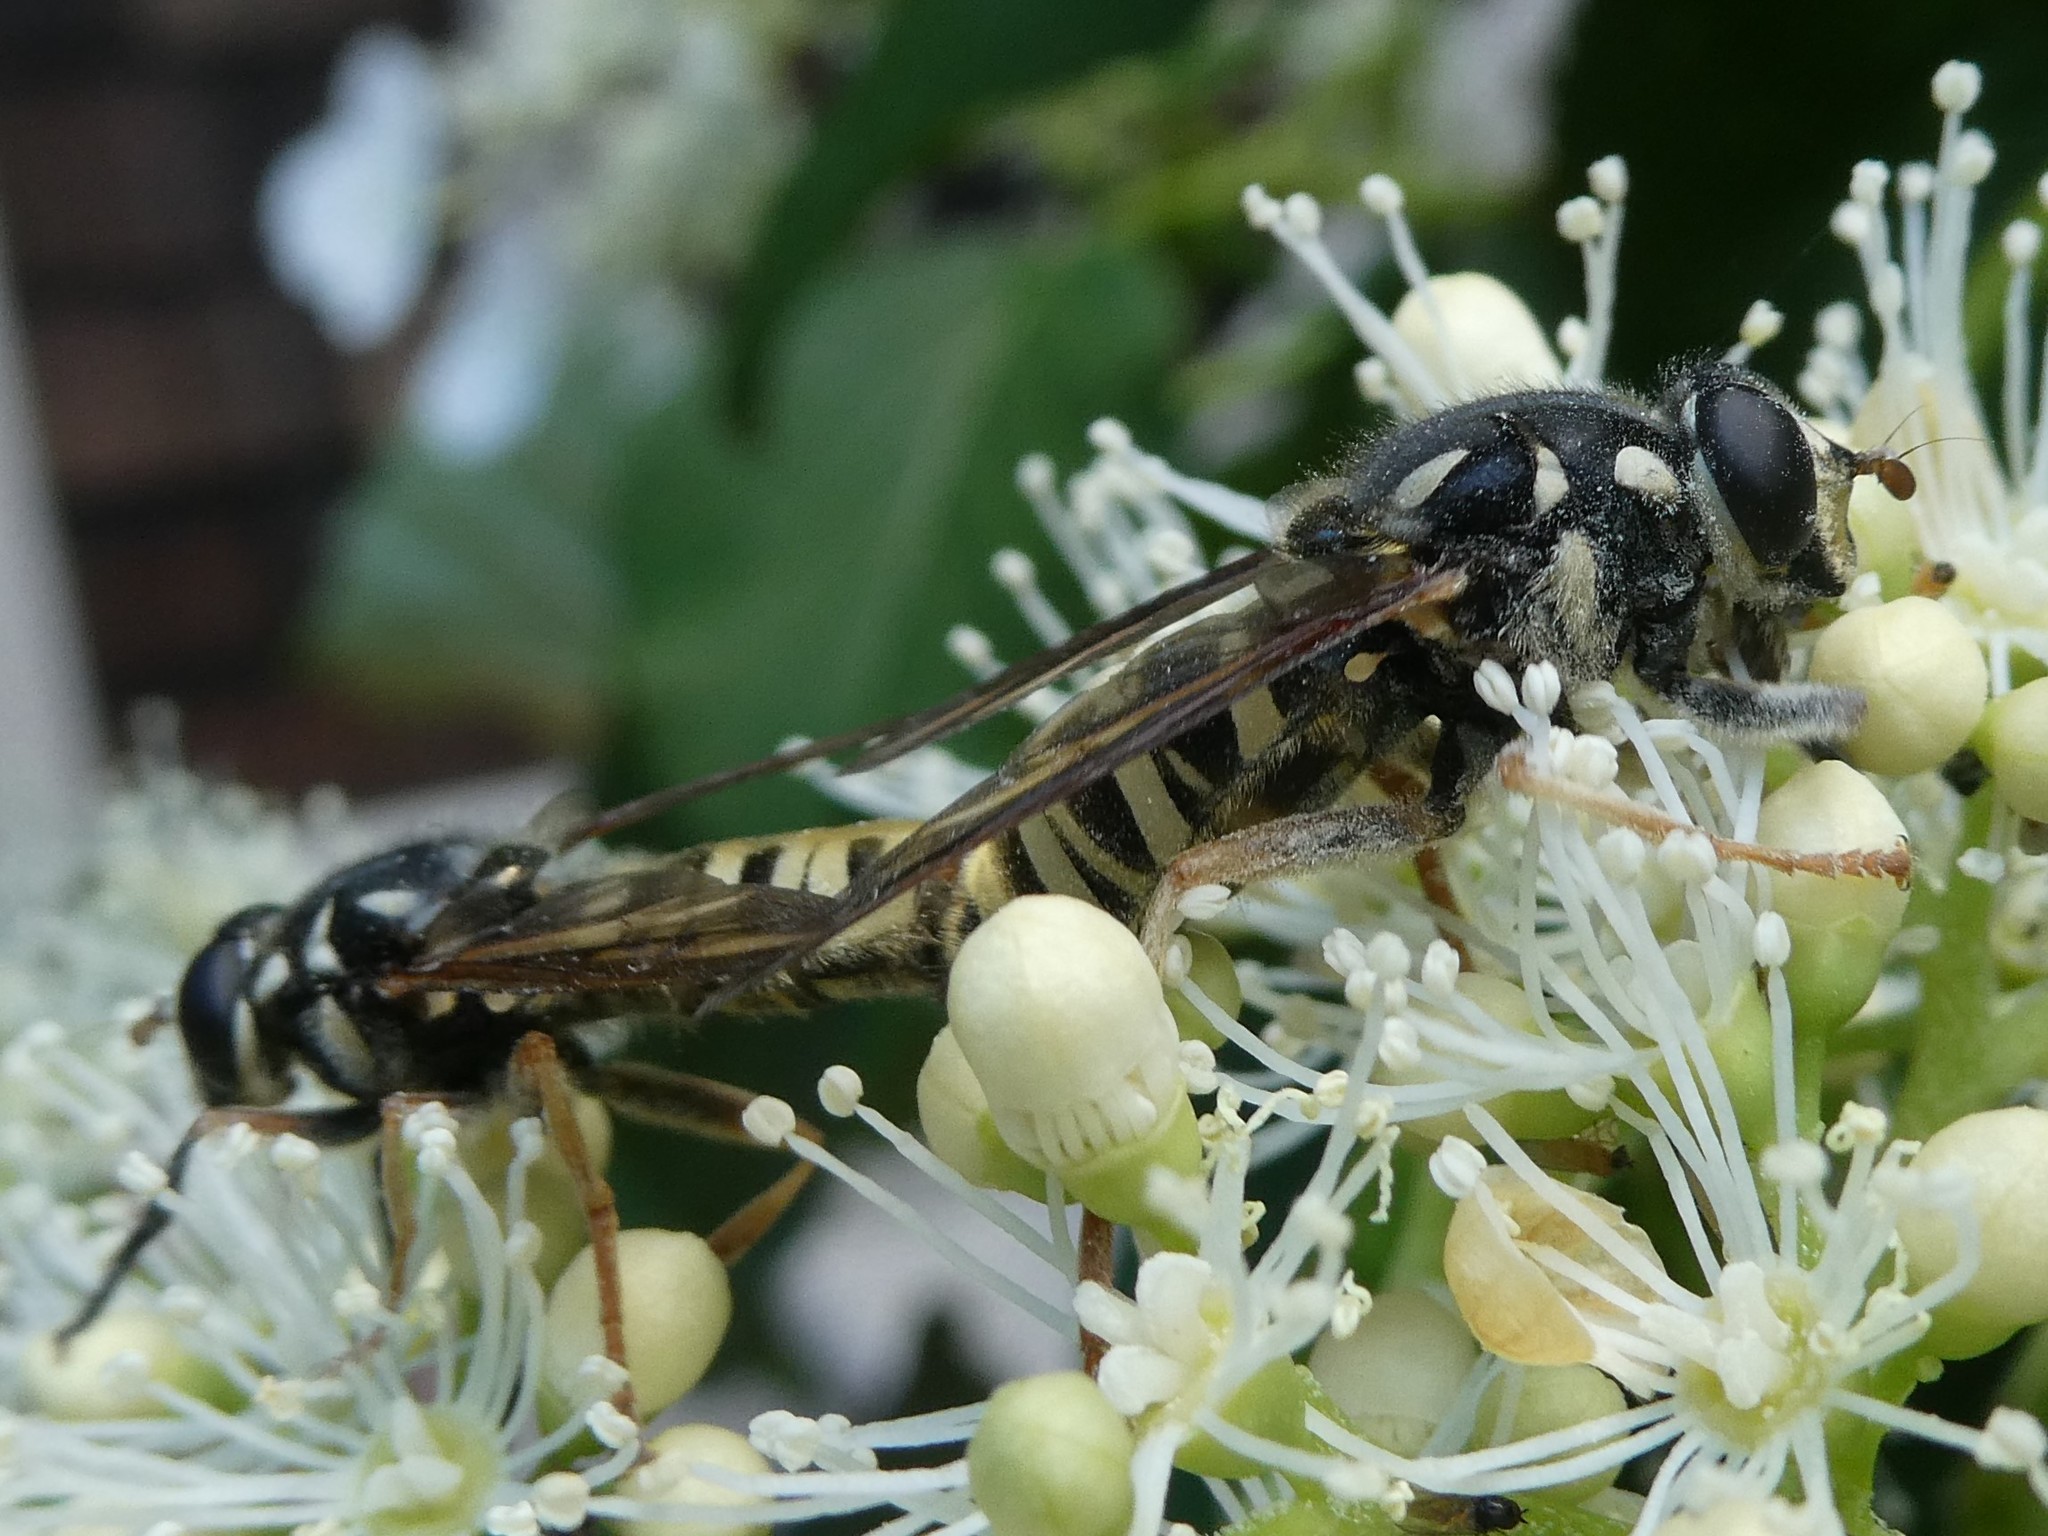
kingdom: Animalia
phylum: Arthropoda
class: Insecta
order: Diptera
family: Syrphidae
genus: Temnostoma
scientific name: Temnostoma excentricum
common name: Black-spotted falsehorn
